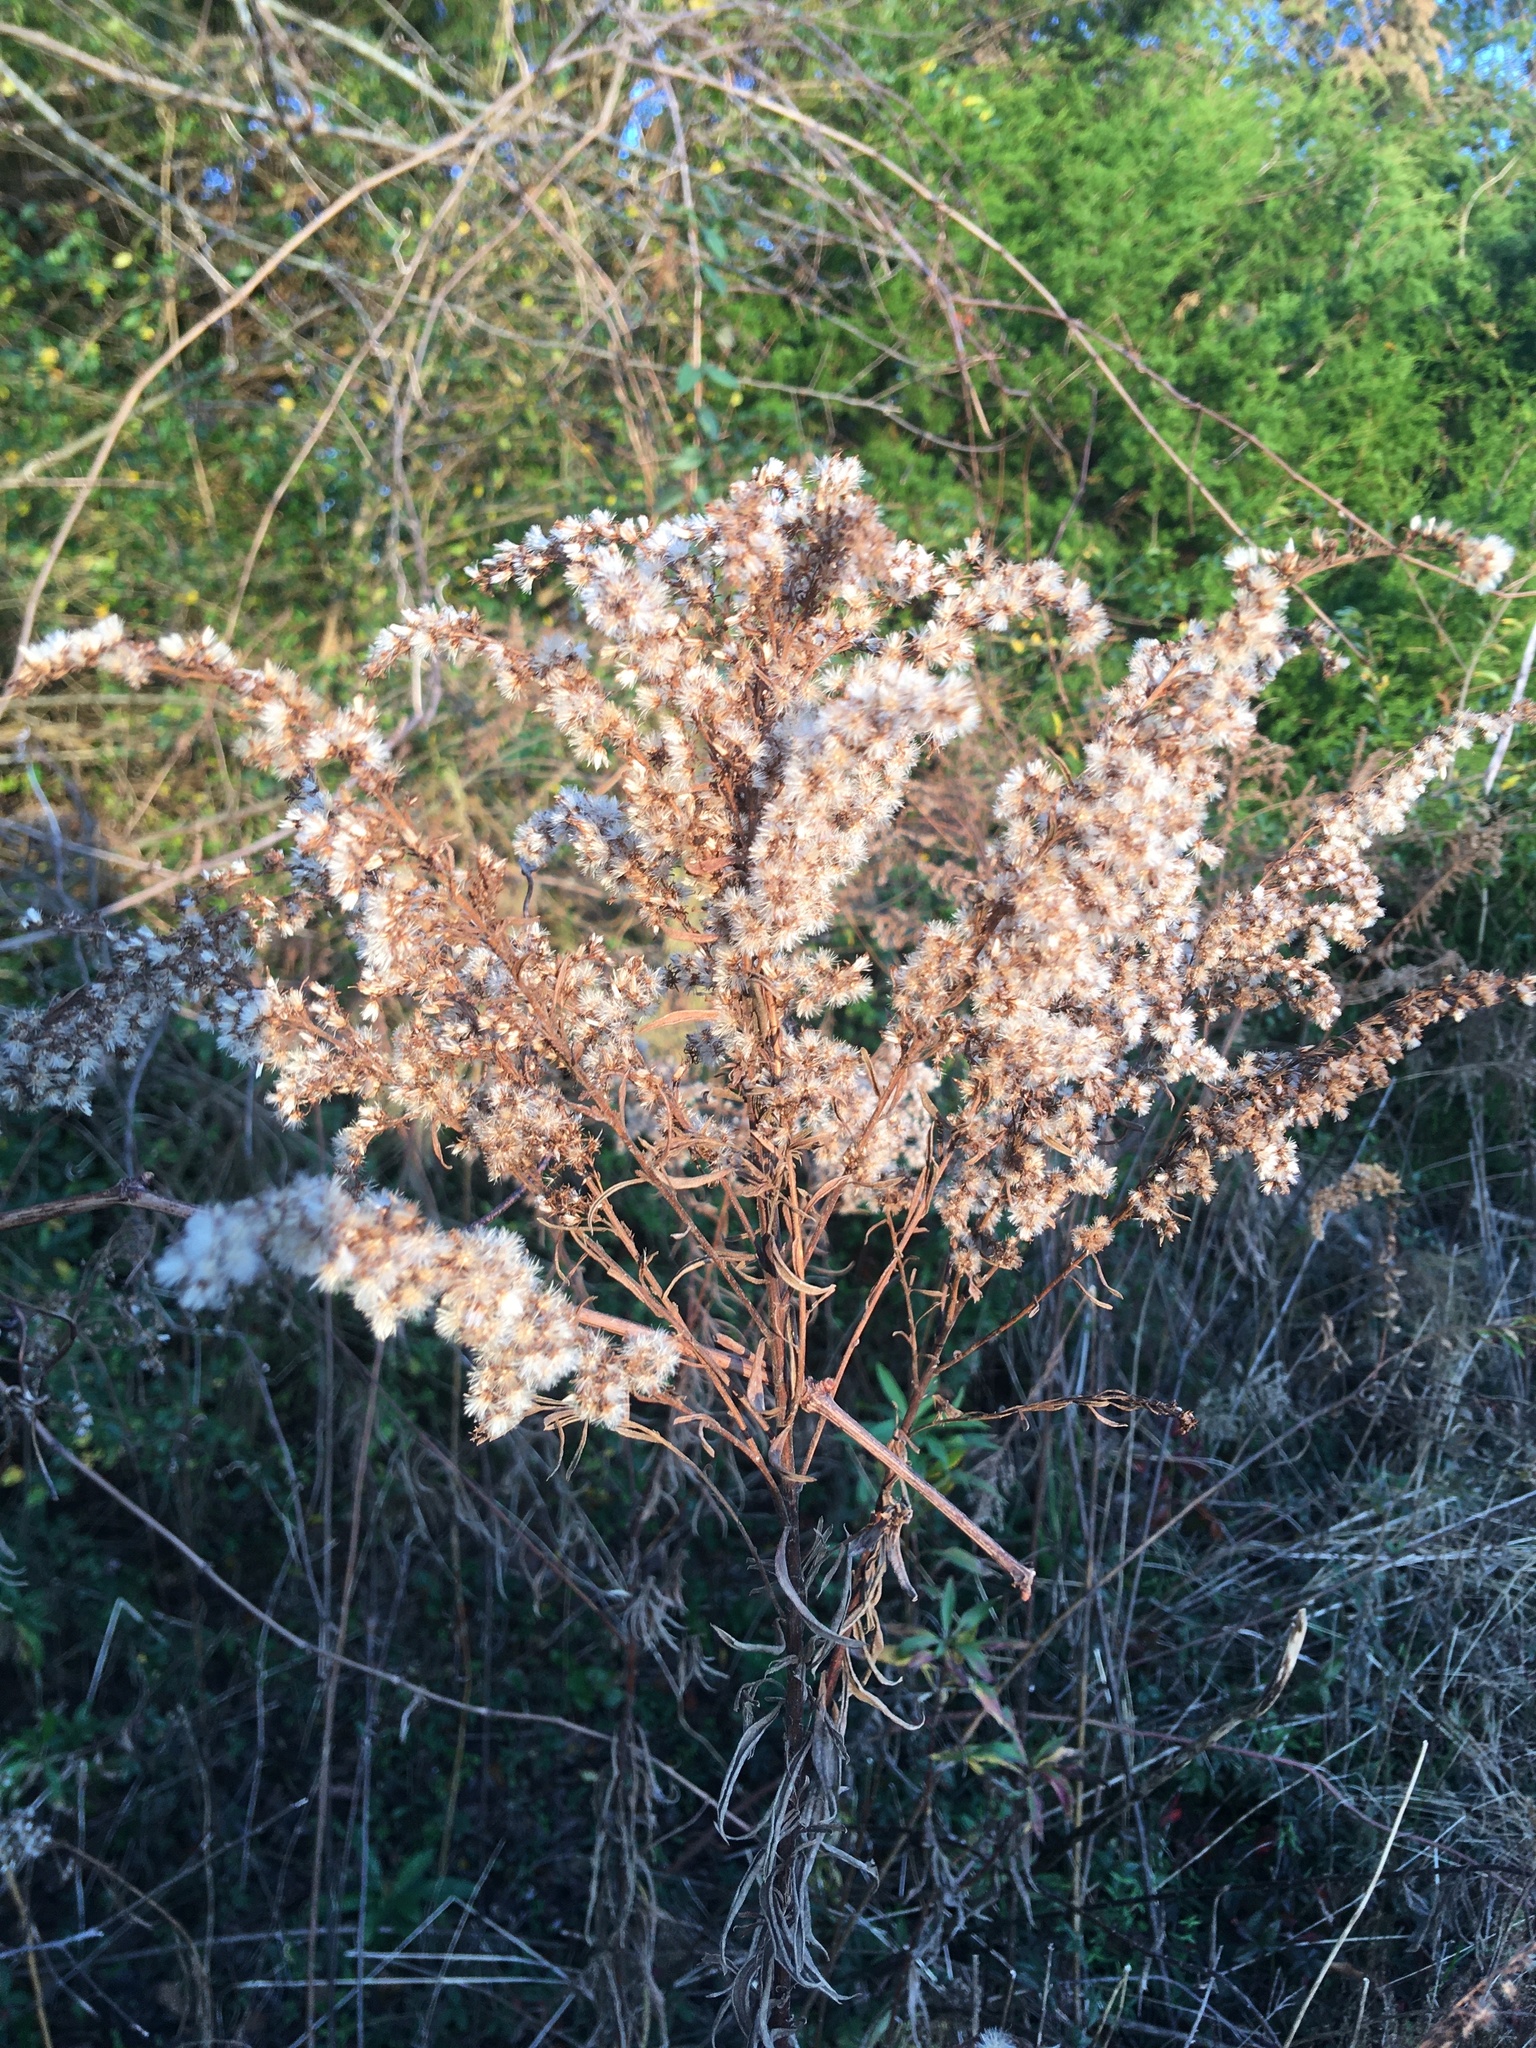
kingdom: Plantae
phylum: Tracheophyta
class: Magnoliopsida
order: Asterales
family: Asteraceae
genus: Solidago
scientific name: Solidago altissima
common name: Late goldenrod
